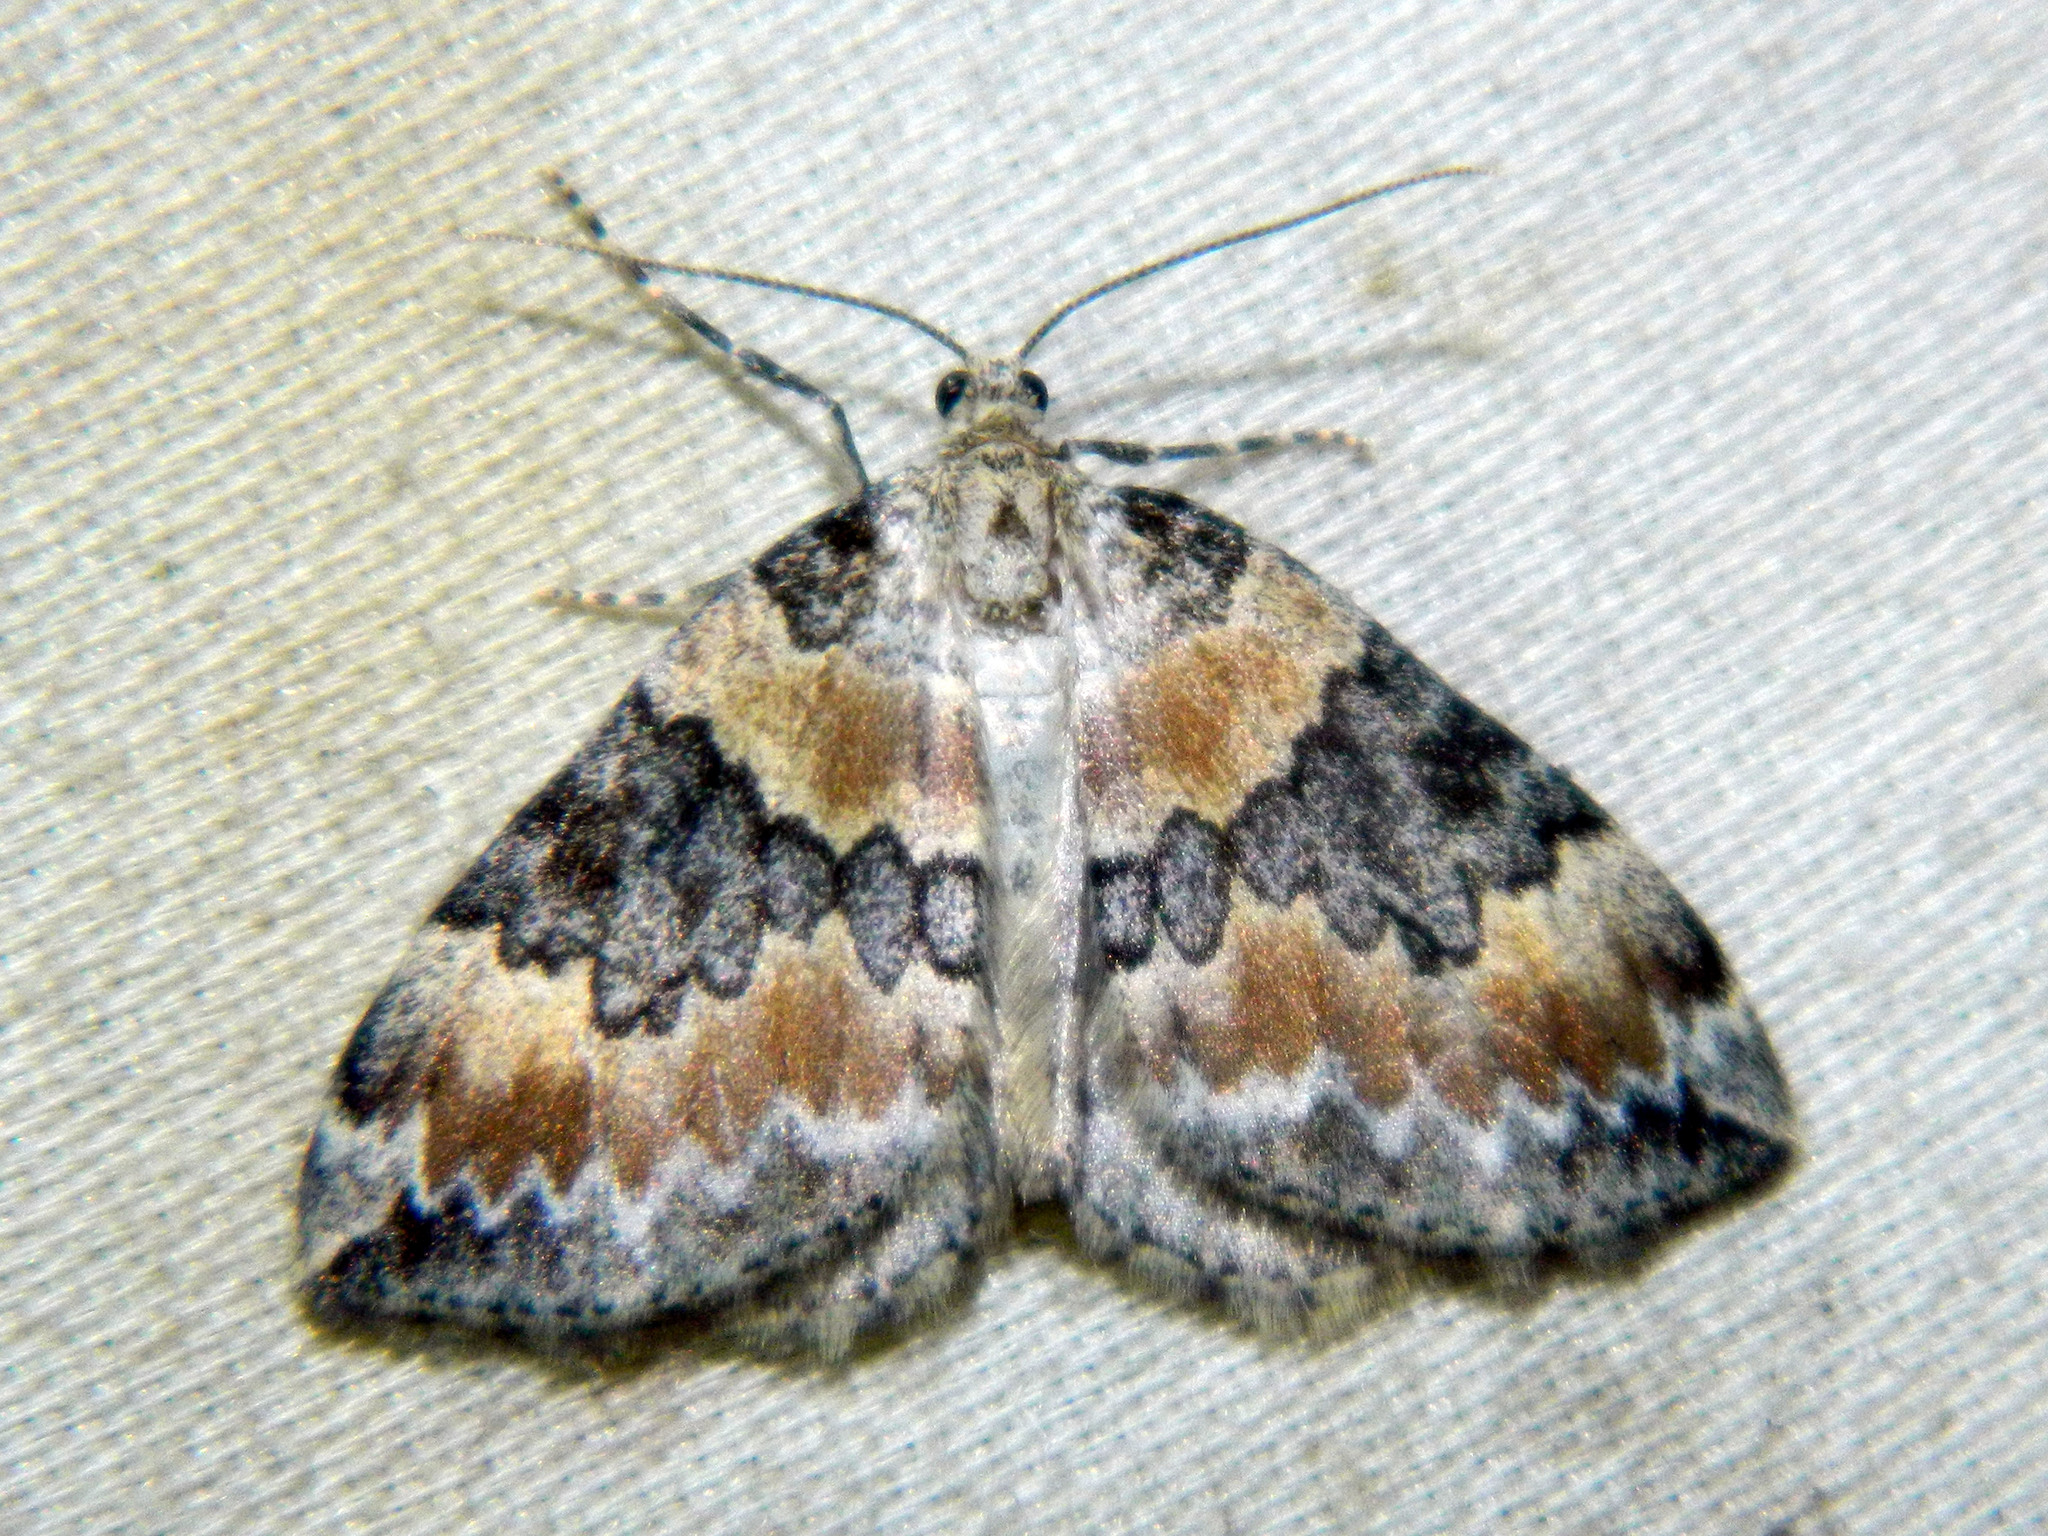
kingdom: Animalia
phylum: Arthropoda
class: Insecta
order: Lepidoptera
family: Geometridae
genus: Dysstroma
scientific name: Dysstroma brunneata
